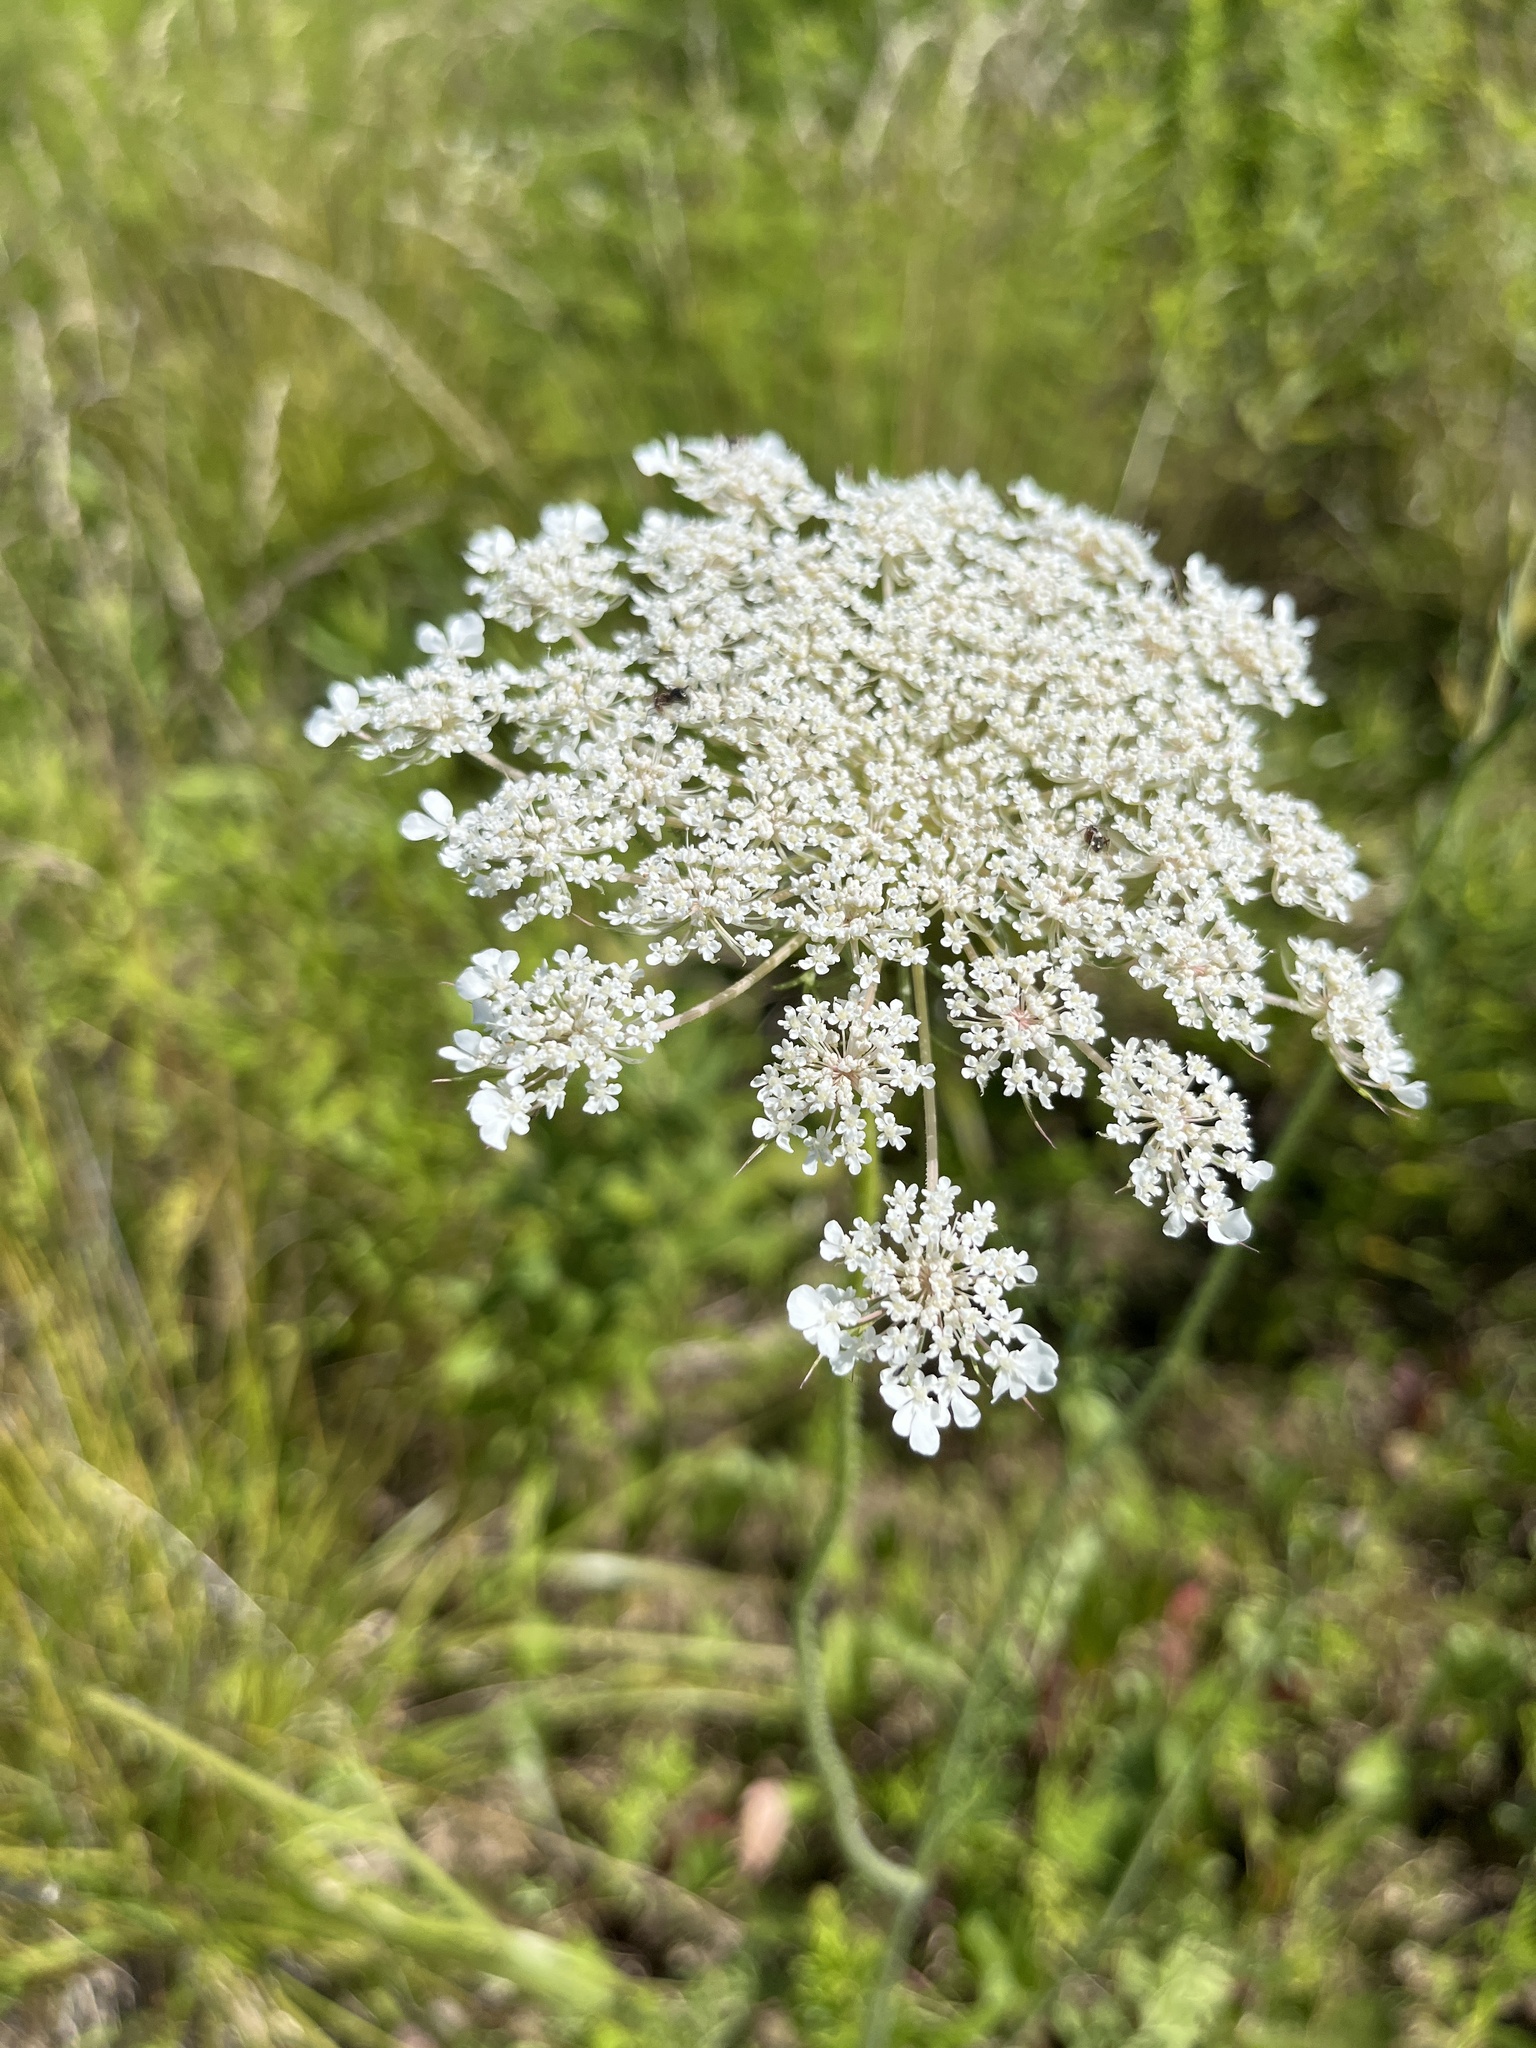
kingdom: Plantae
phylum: Tracheophyta
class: Magnoliopsida
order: Apiales
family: Apiaceae
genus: Daucus
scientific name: Daucus carota
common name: Wild carrot
